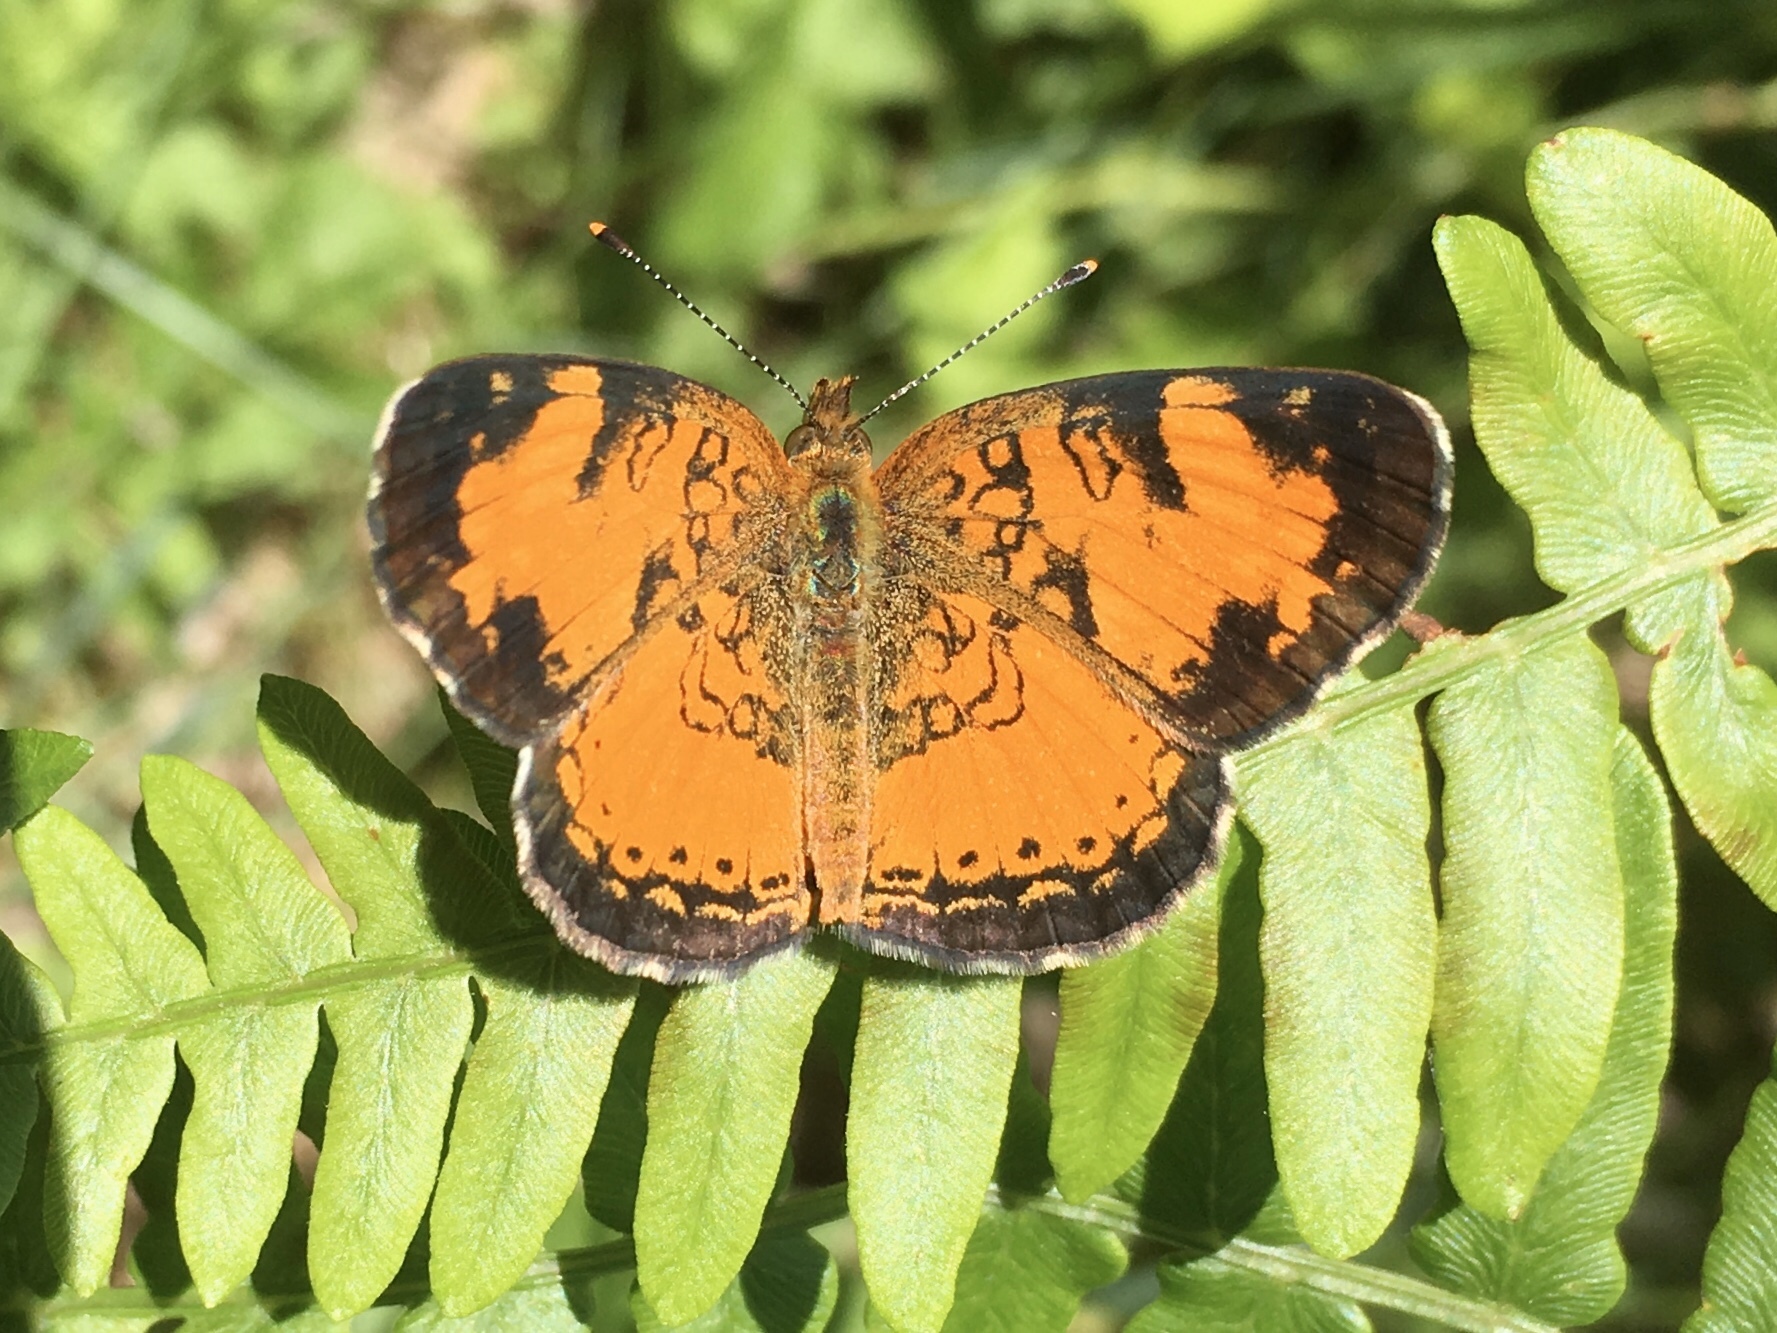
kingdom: Animalia
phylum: Arthropoda
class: Insecta
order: Lepidoptera
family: Nymphalidae
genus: Phyciodes
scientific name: Phyciodes tharos
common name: Pearl crescent
